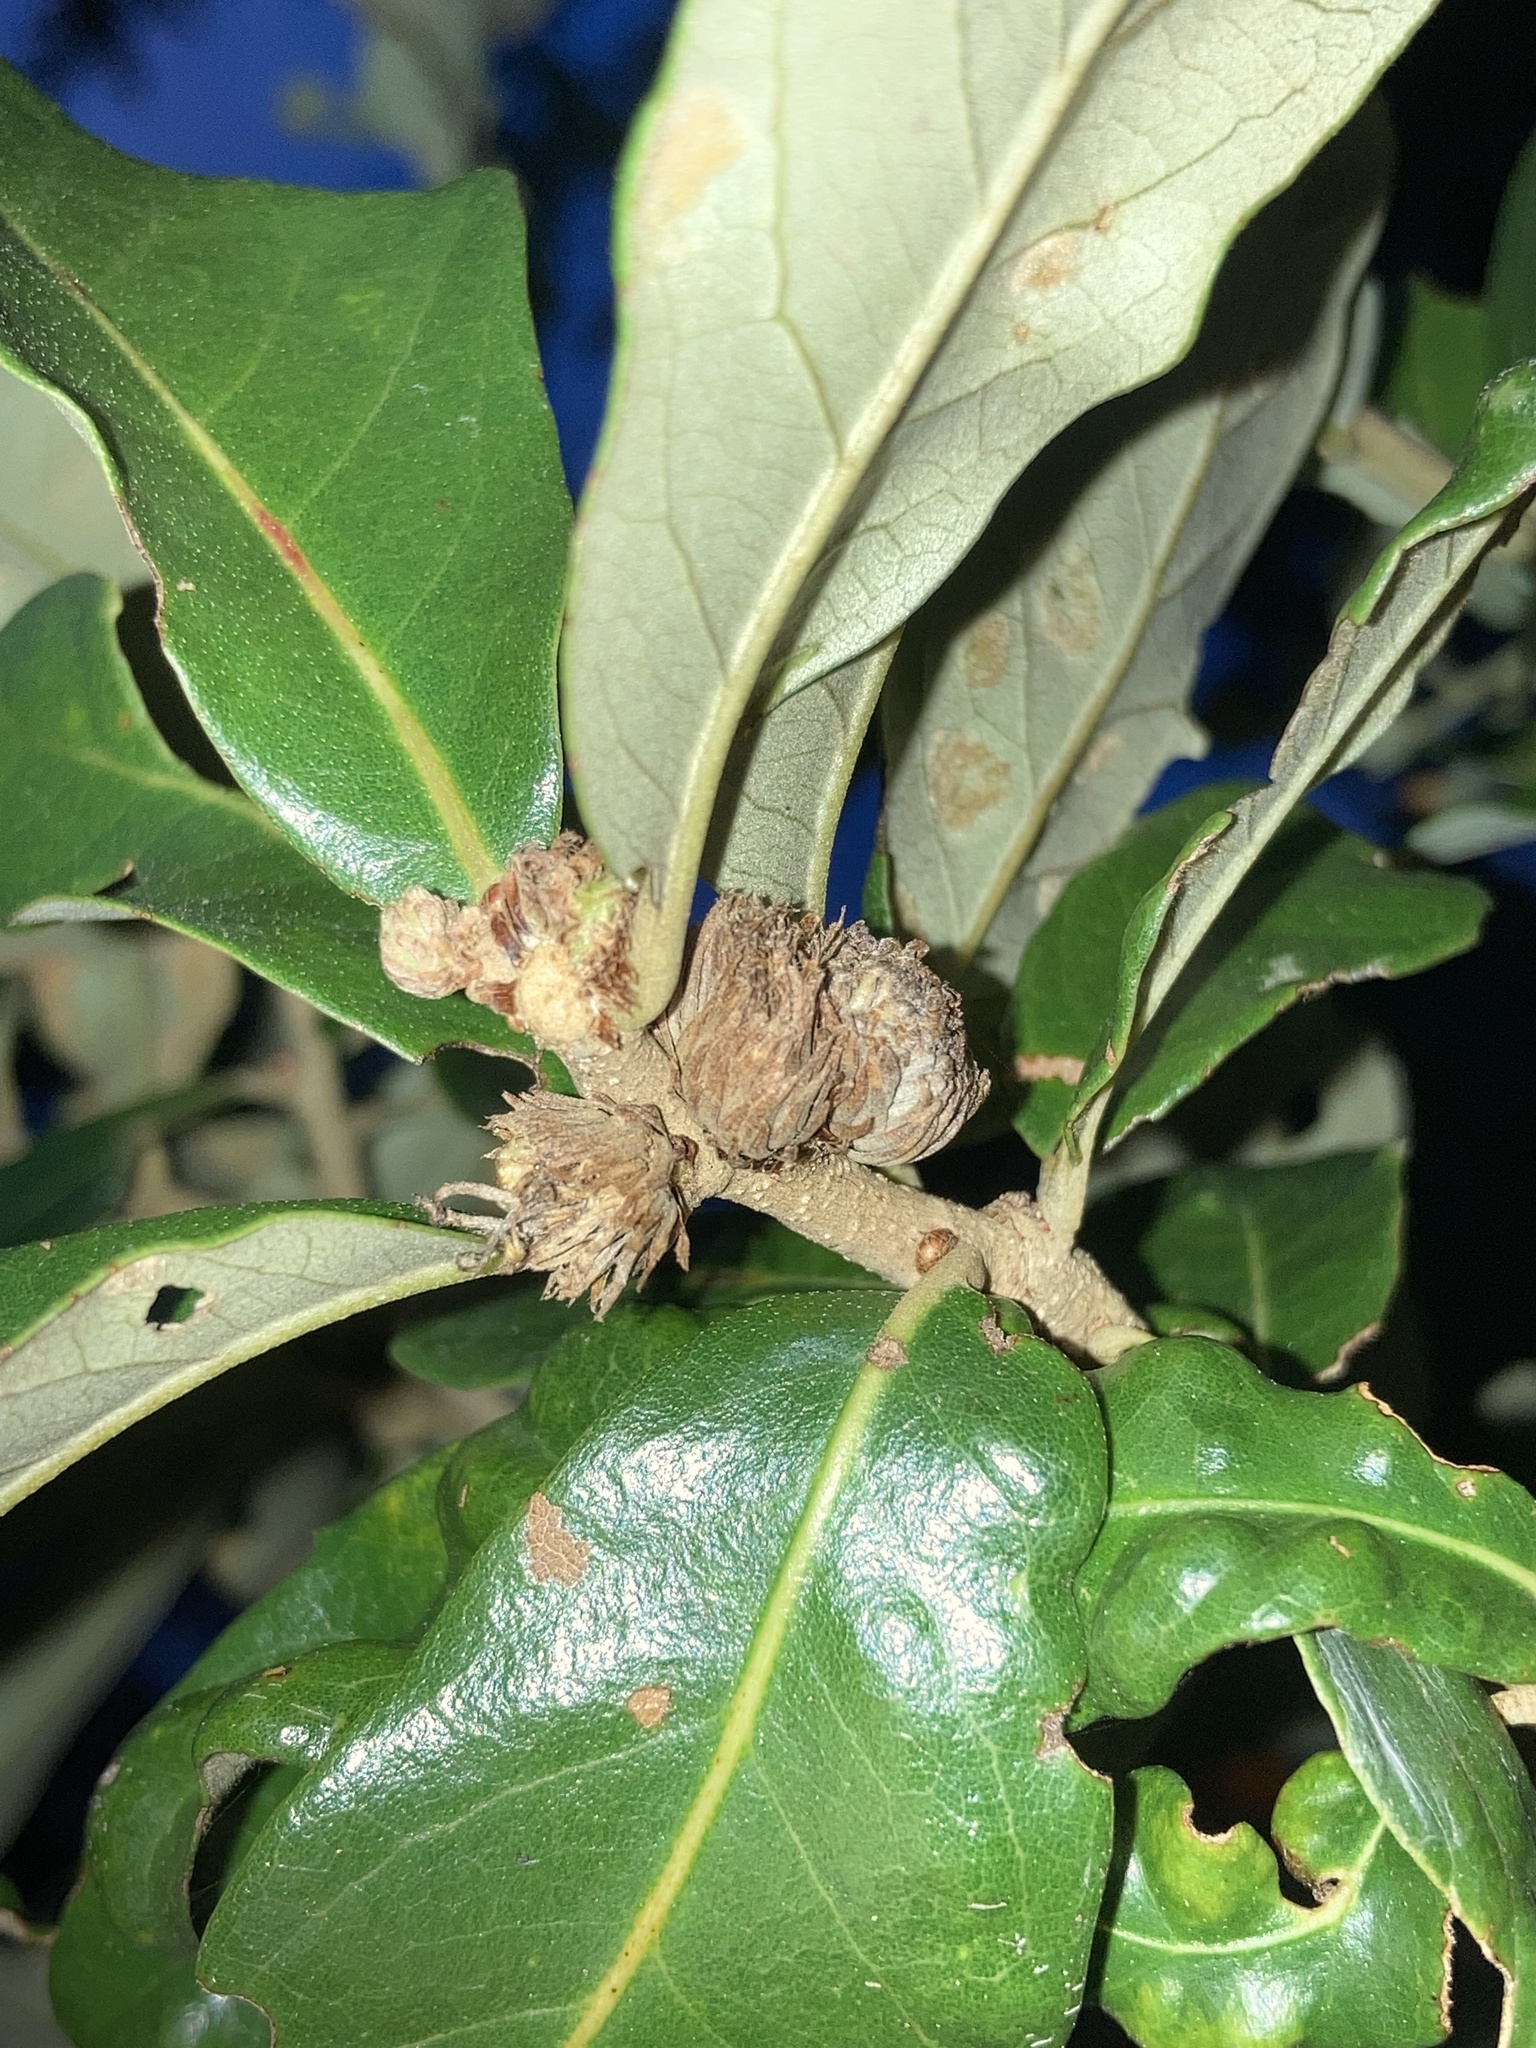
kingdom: Animalia
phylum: Arthropoda
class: Insecta
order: Hymenoptera
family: Cynipidae
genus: Andricus
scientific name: Andricus quercusfoliatus
